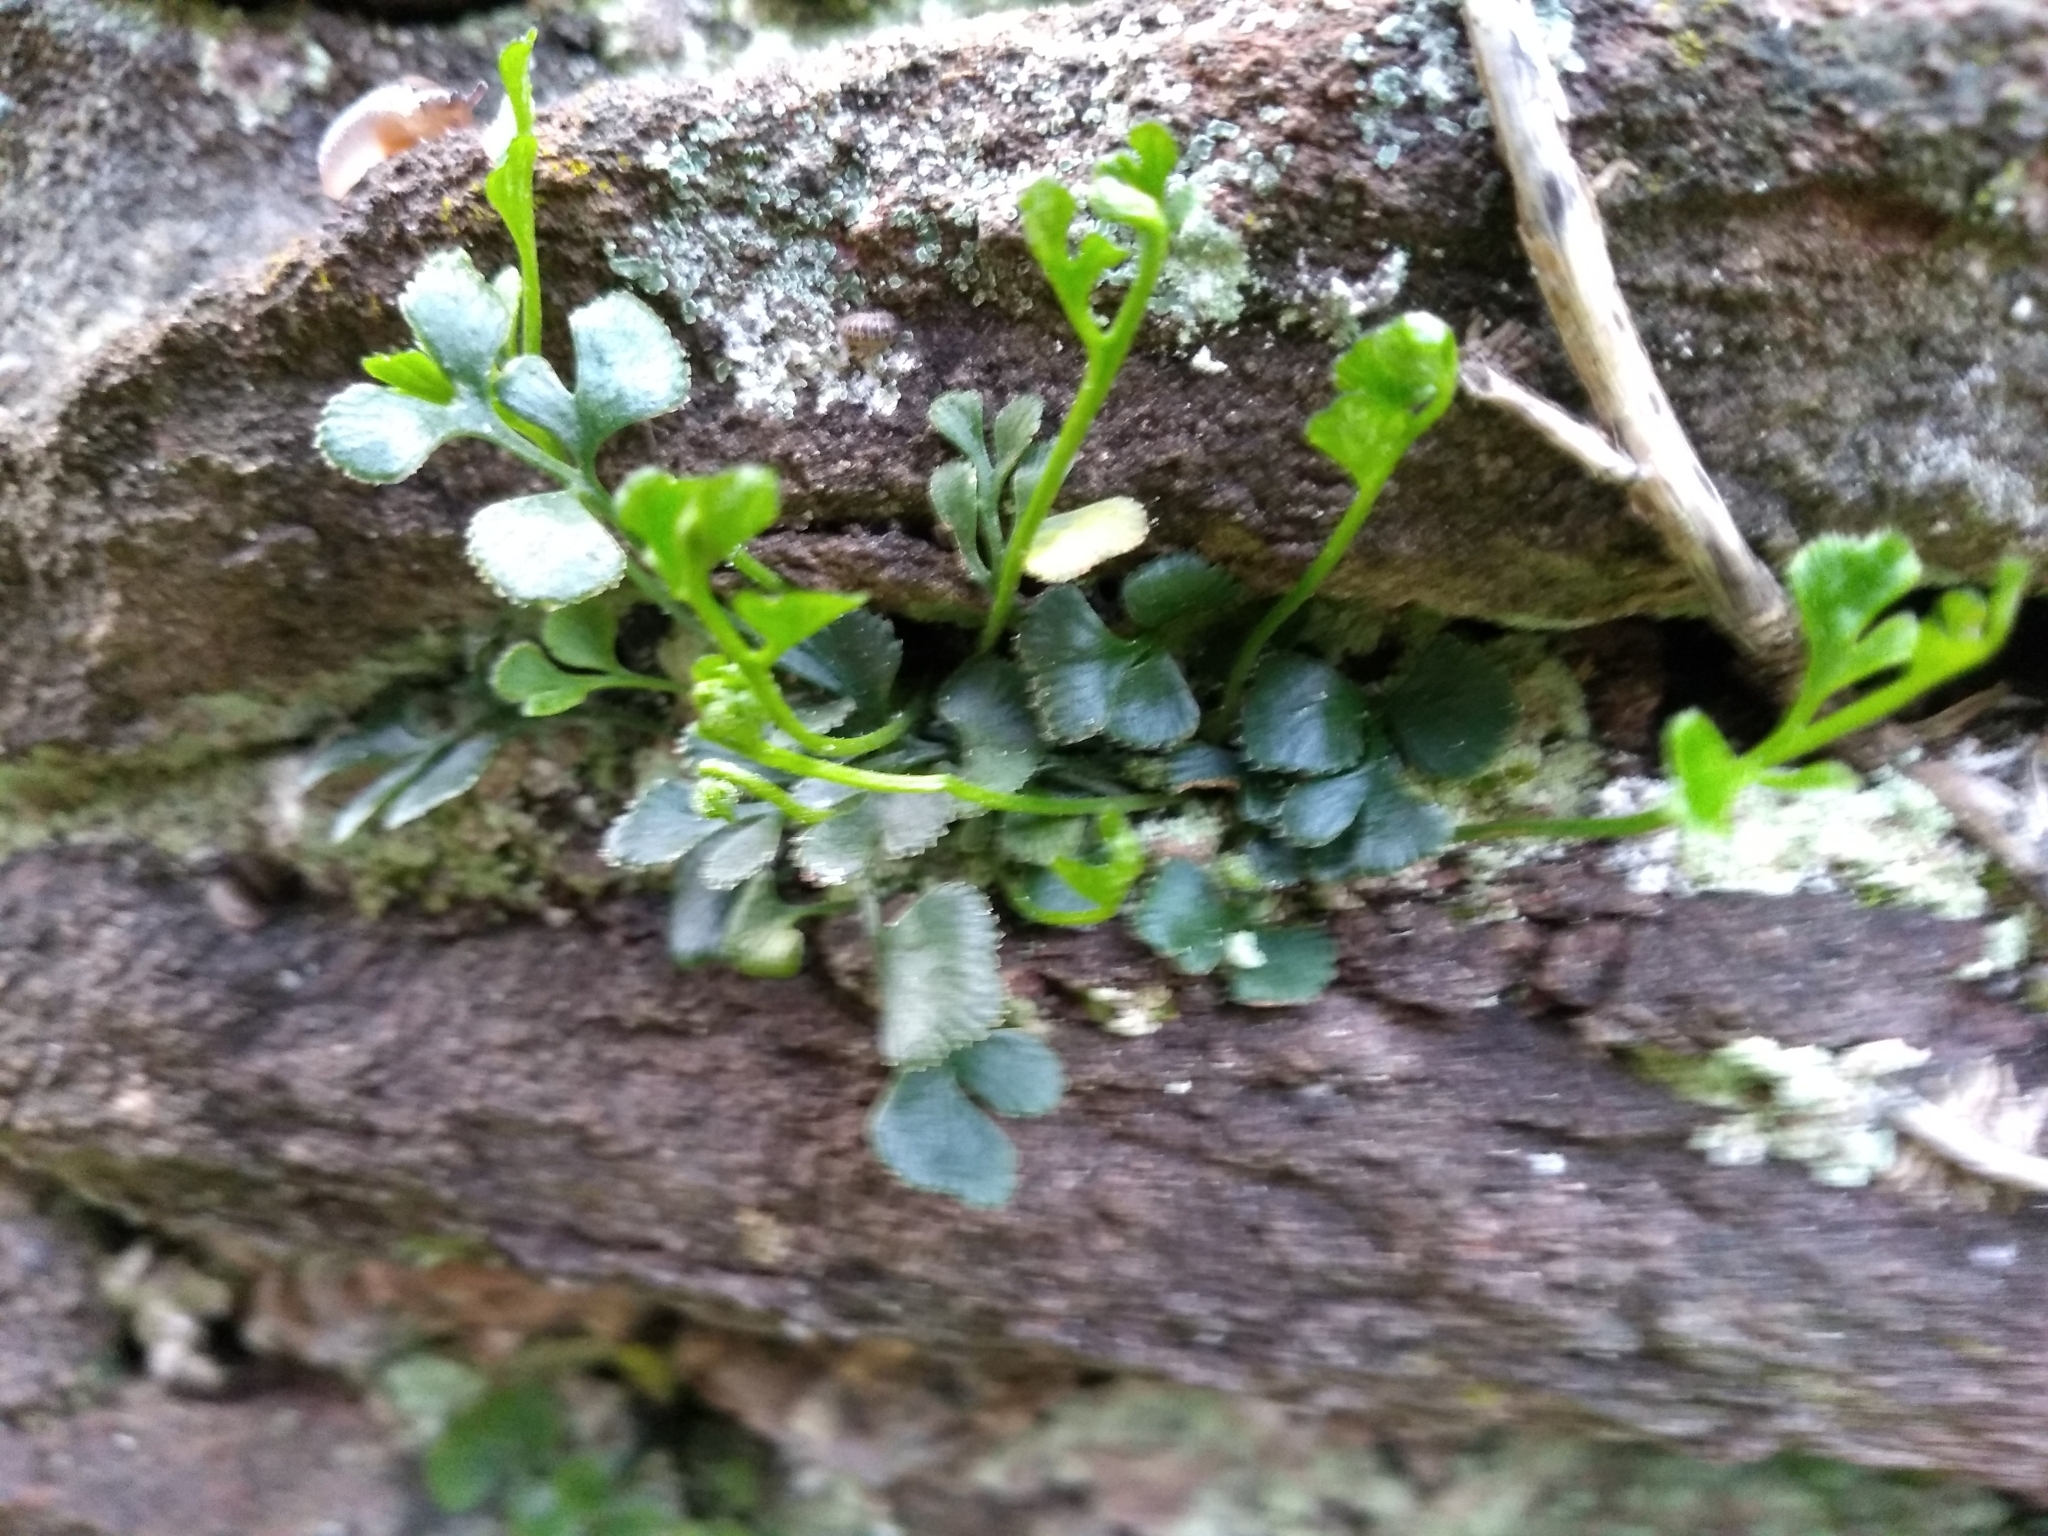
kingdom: Plantae
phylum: Tracheophyta
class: Polypodiopsida
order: Polypodiales
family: Aspleniaceae
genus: Asplenium
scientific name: Asplenium ruta-muraria
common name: Wall-rue
